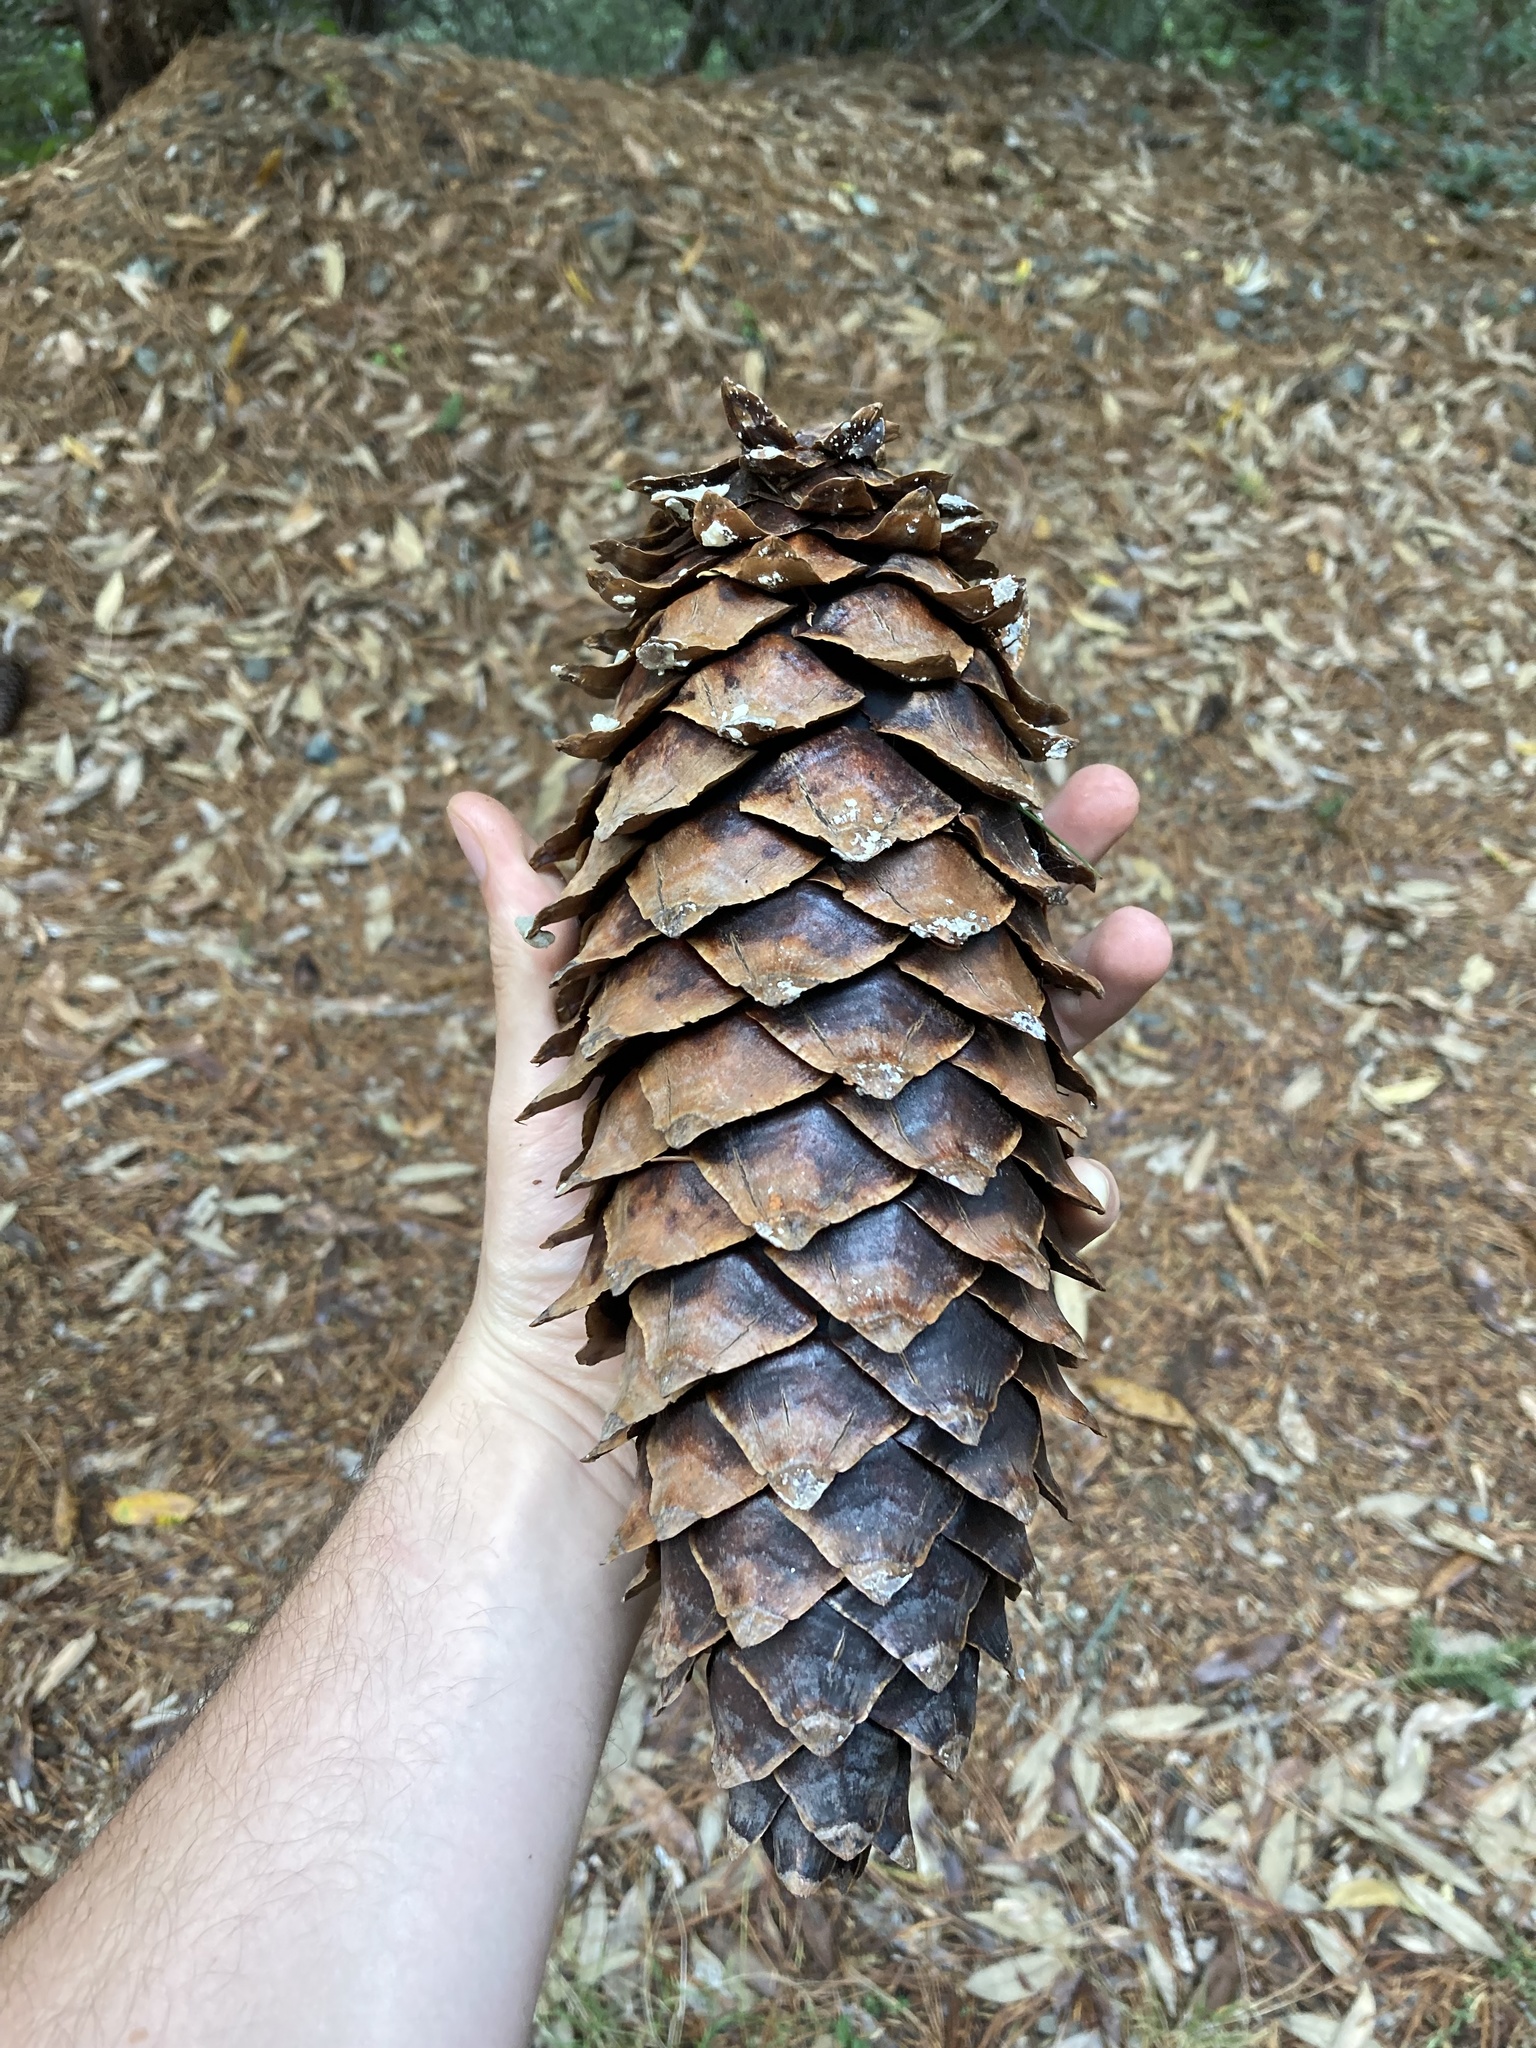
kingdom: Plantae
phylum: Tracheophyta
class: Pinopsida
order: Pinales
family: Pinaceae
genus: Pinus
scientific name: Pinus lambertiana
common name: Sugar pine
